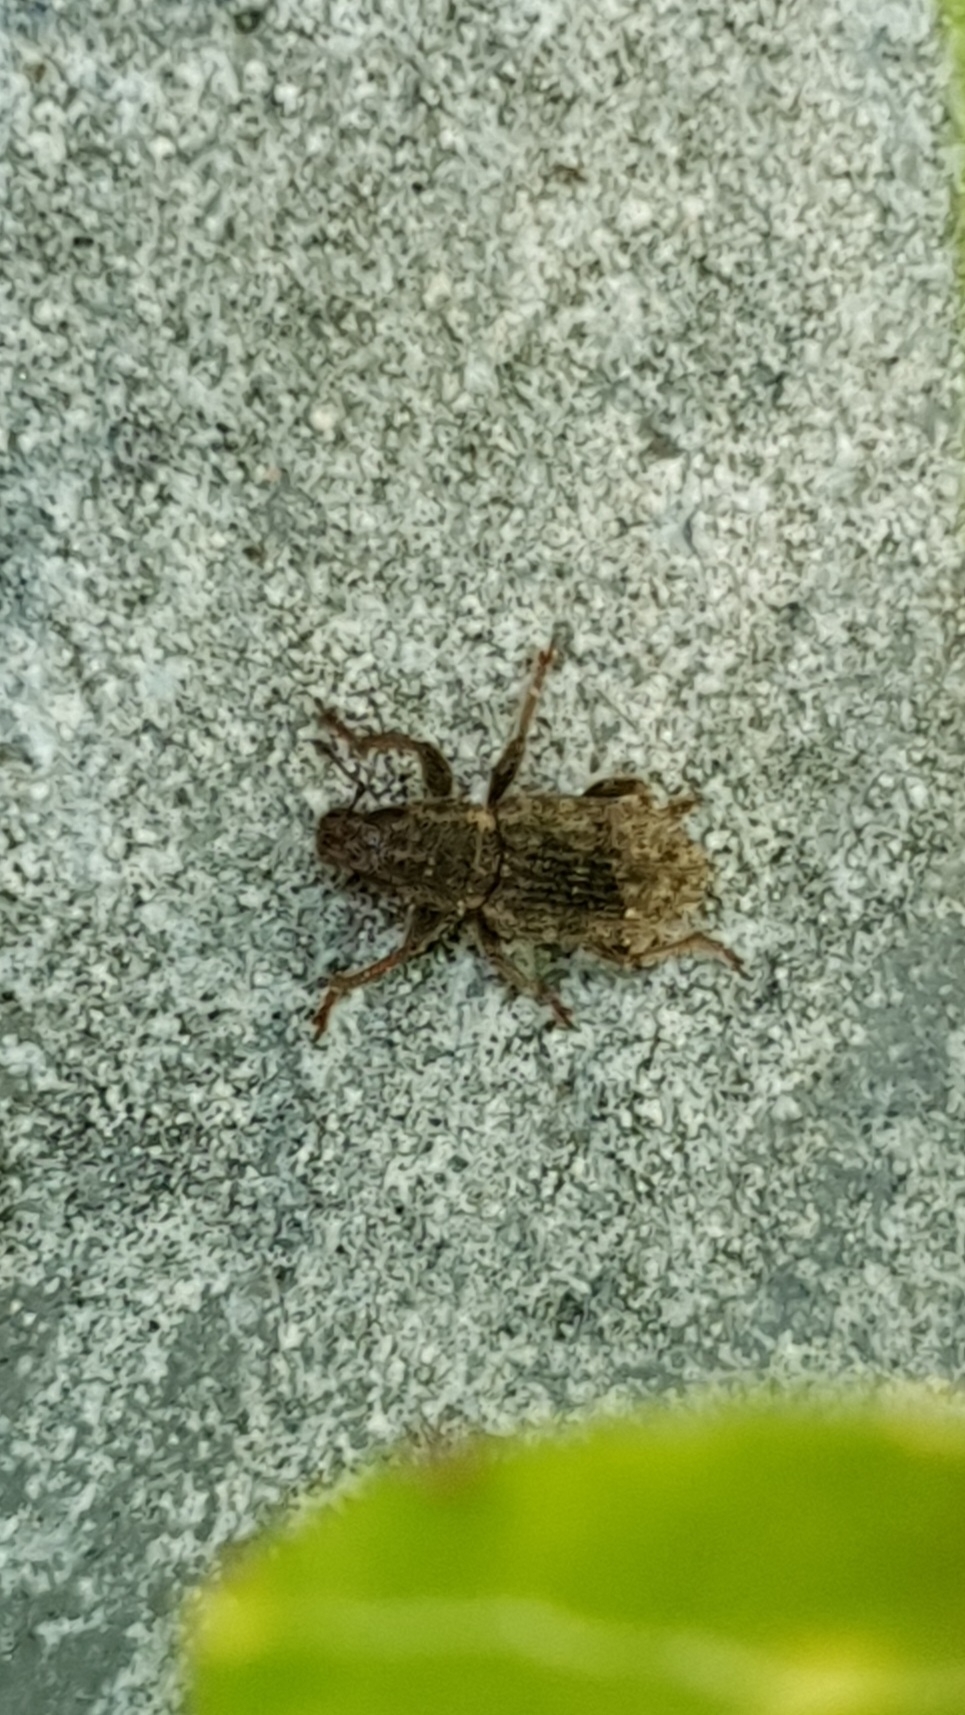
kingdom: Animalia
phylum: Arthropoda
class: Insecta
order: Coleoptera
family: Curculionidae
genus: Sitona
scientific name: Sitona hispidulus
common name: Clover weevil
